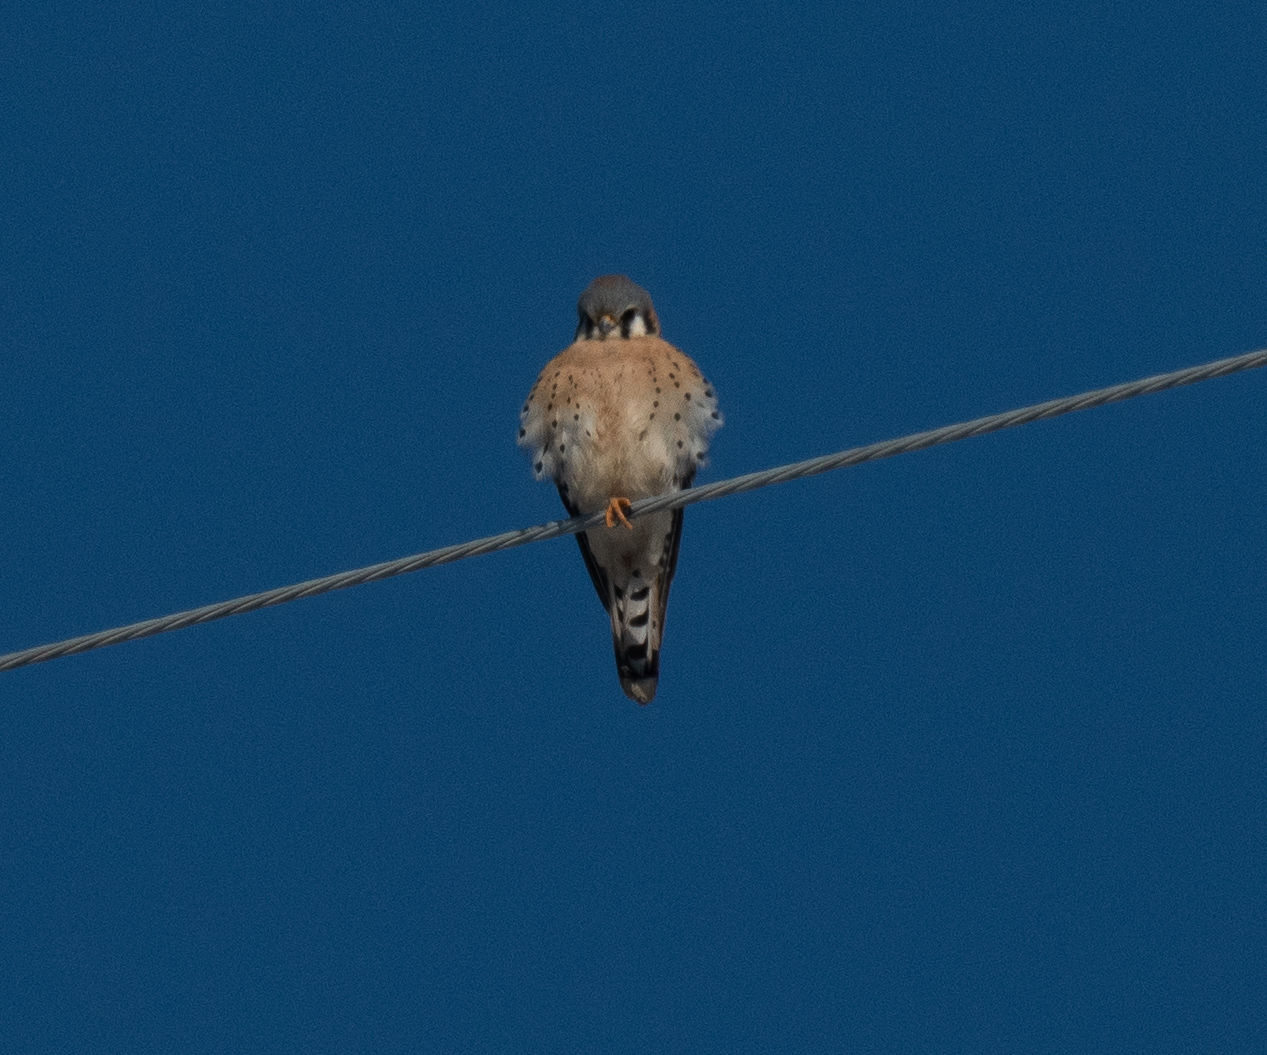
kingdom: Animalia
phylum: Chordata
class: Aves
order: Falconiformes
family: Falconidae
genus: Falco
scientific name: Falco sparverius
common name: American kestrel
